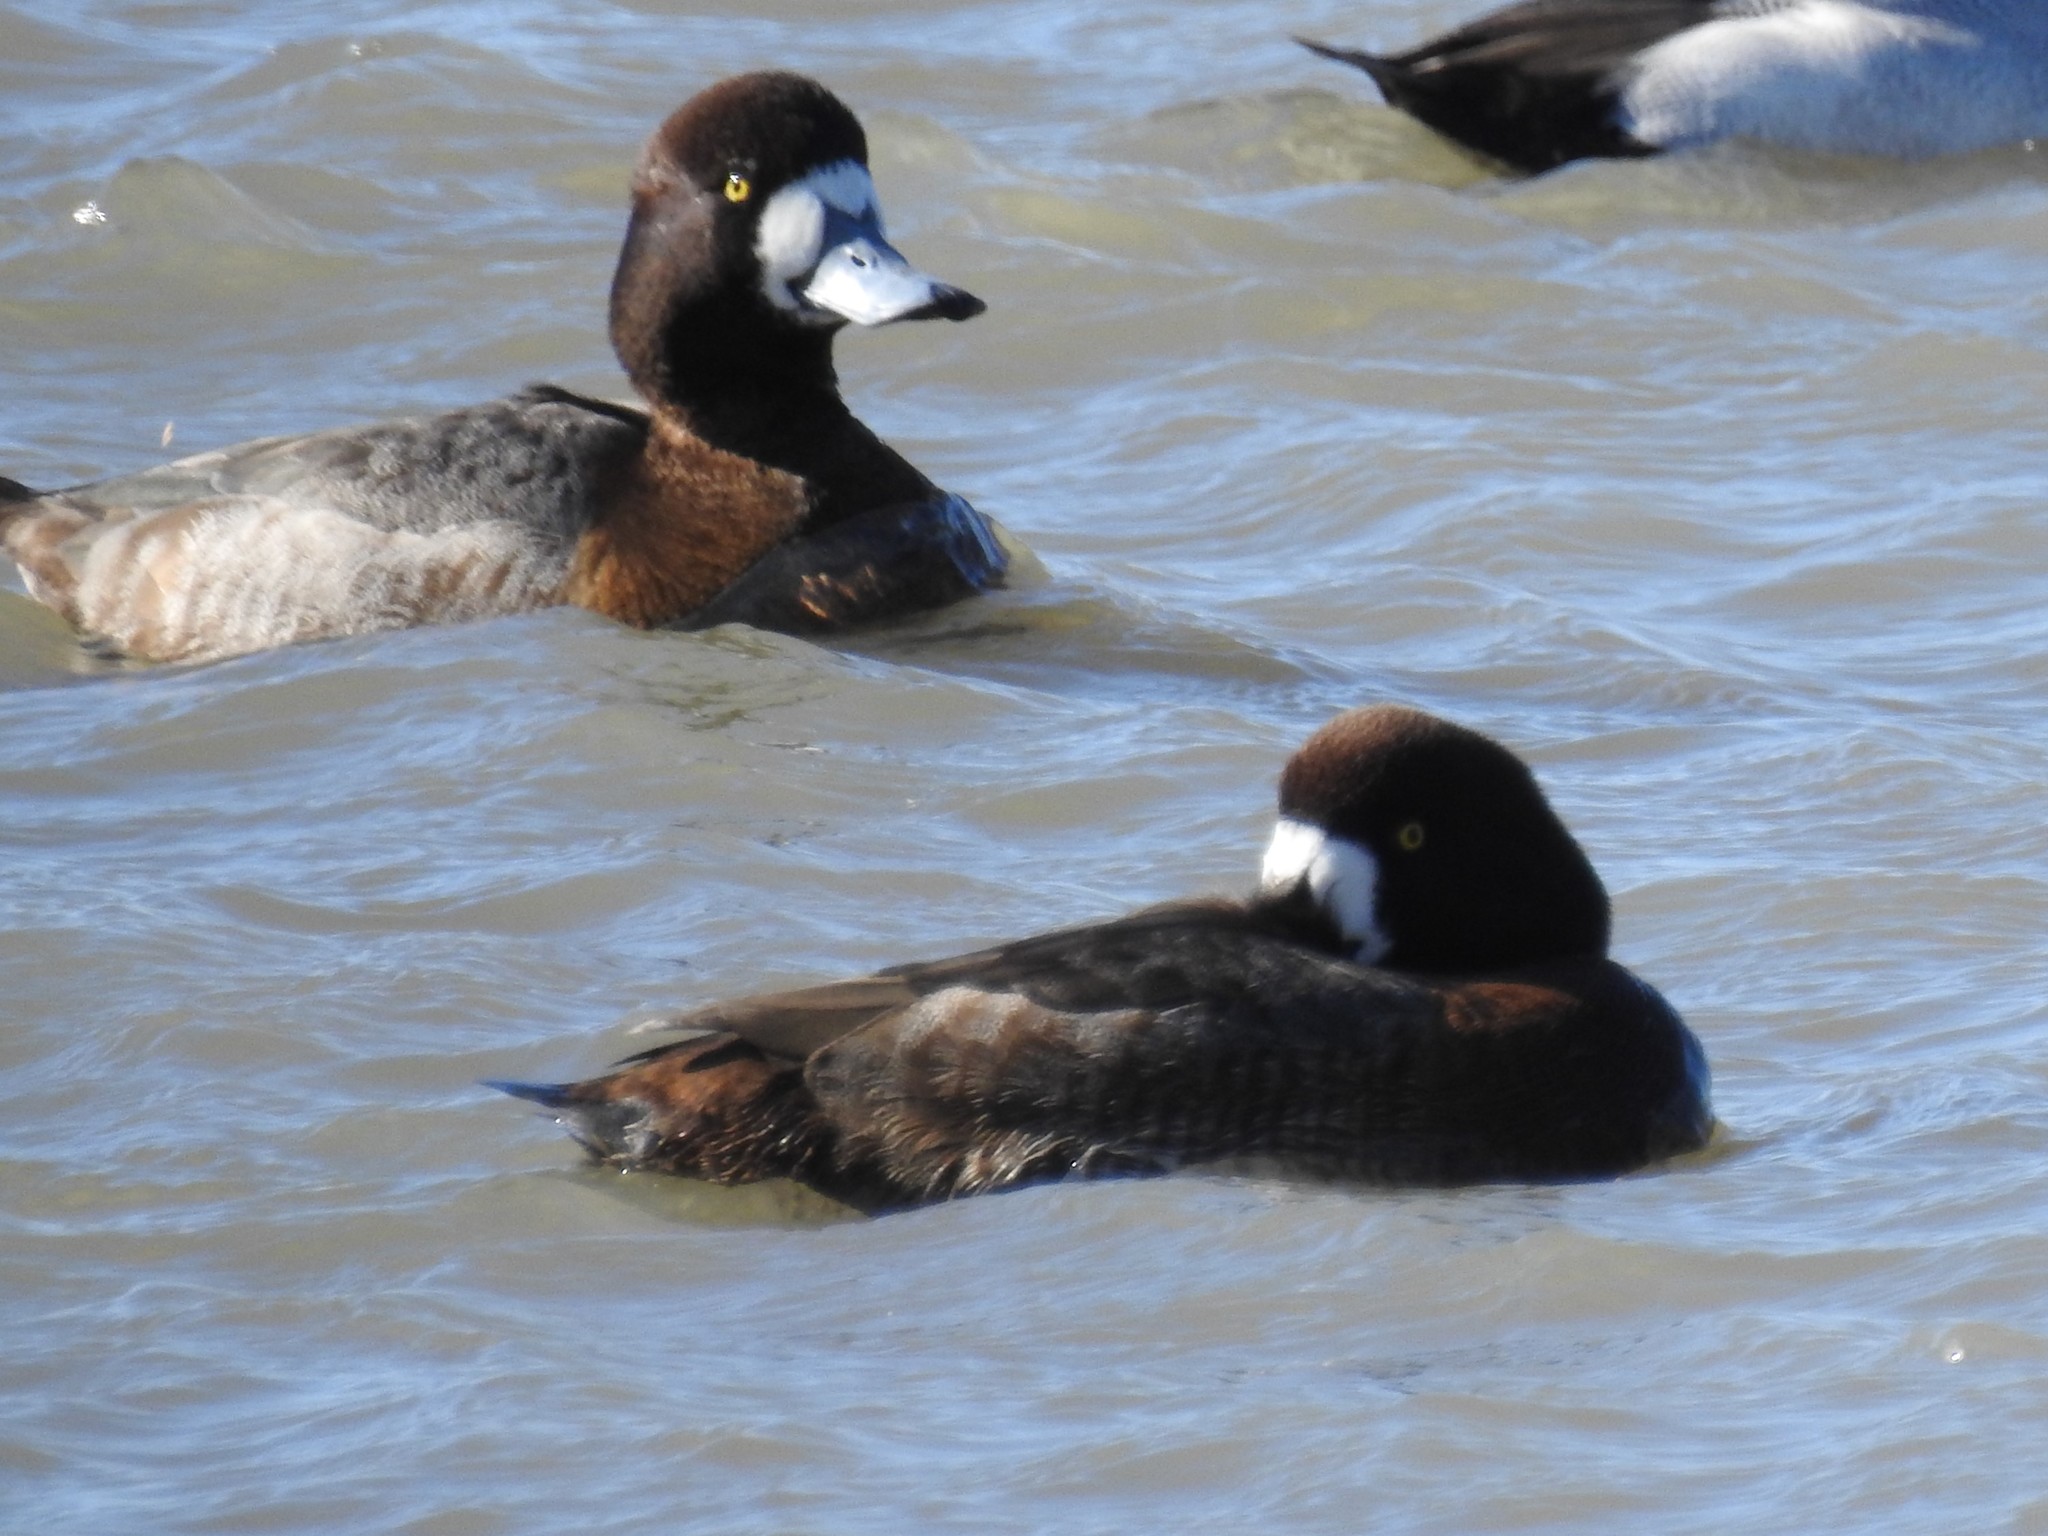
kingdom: Animalia
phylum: Chordata
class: Aves
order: Anseriformes
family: Anatidae
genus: Aythya
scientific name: Aythya marila
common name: Greater scaup
